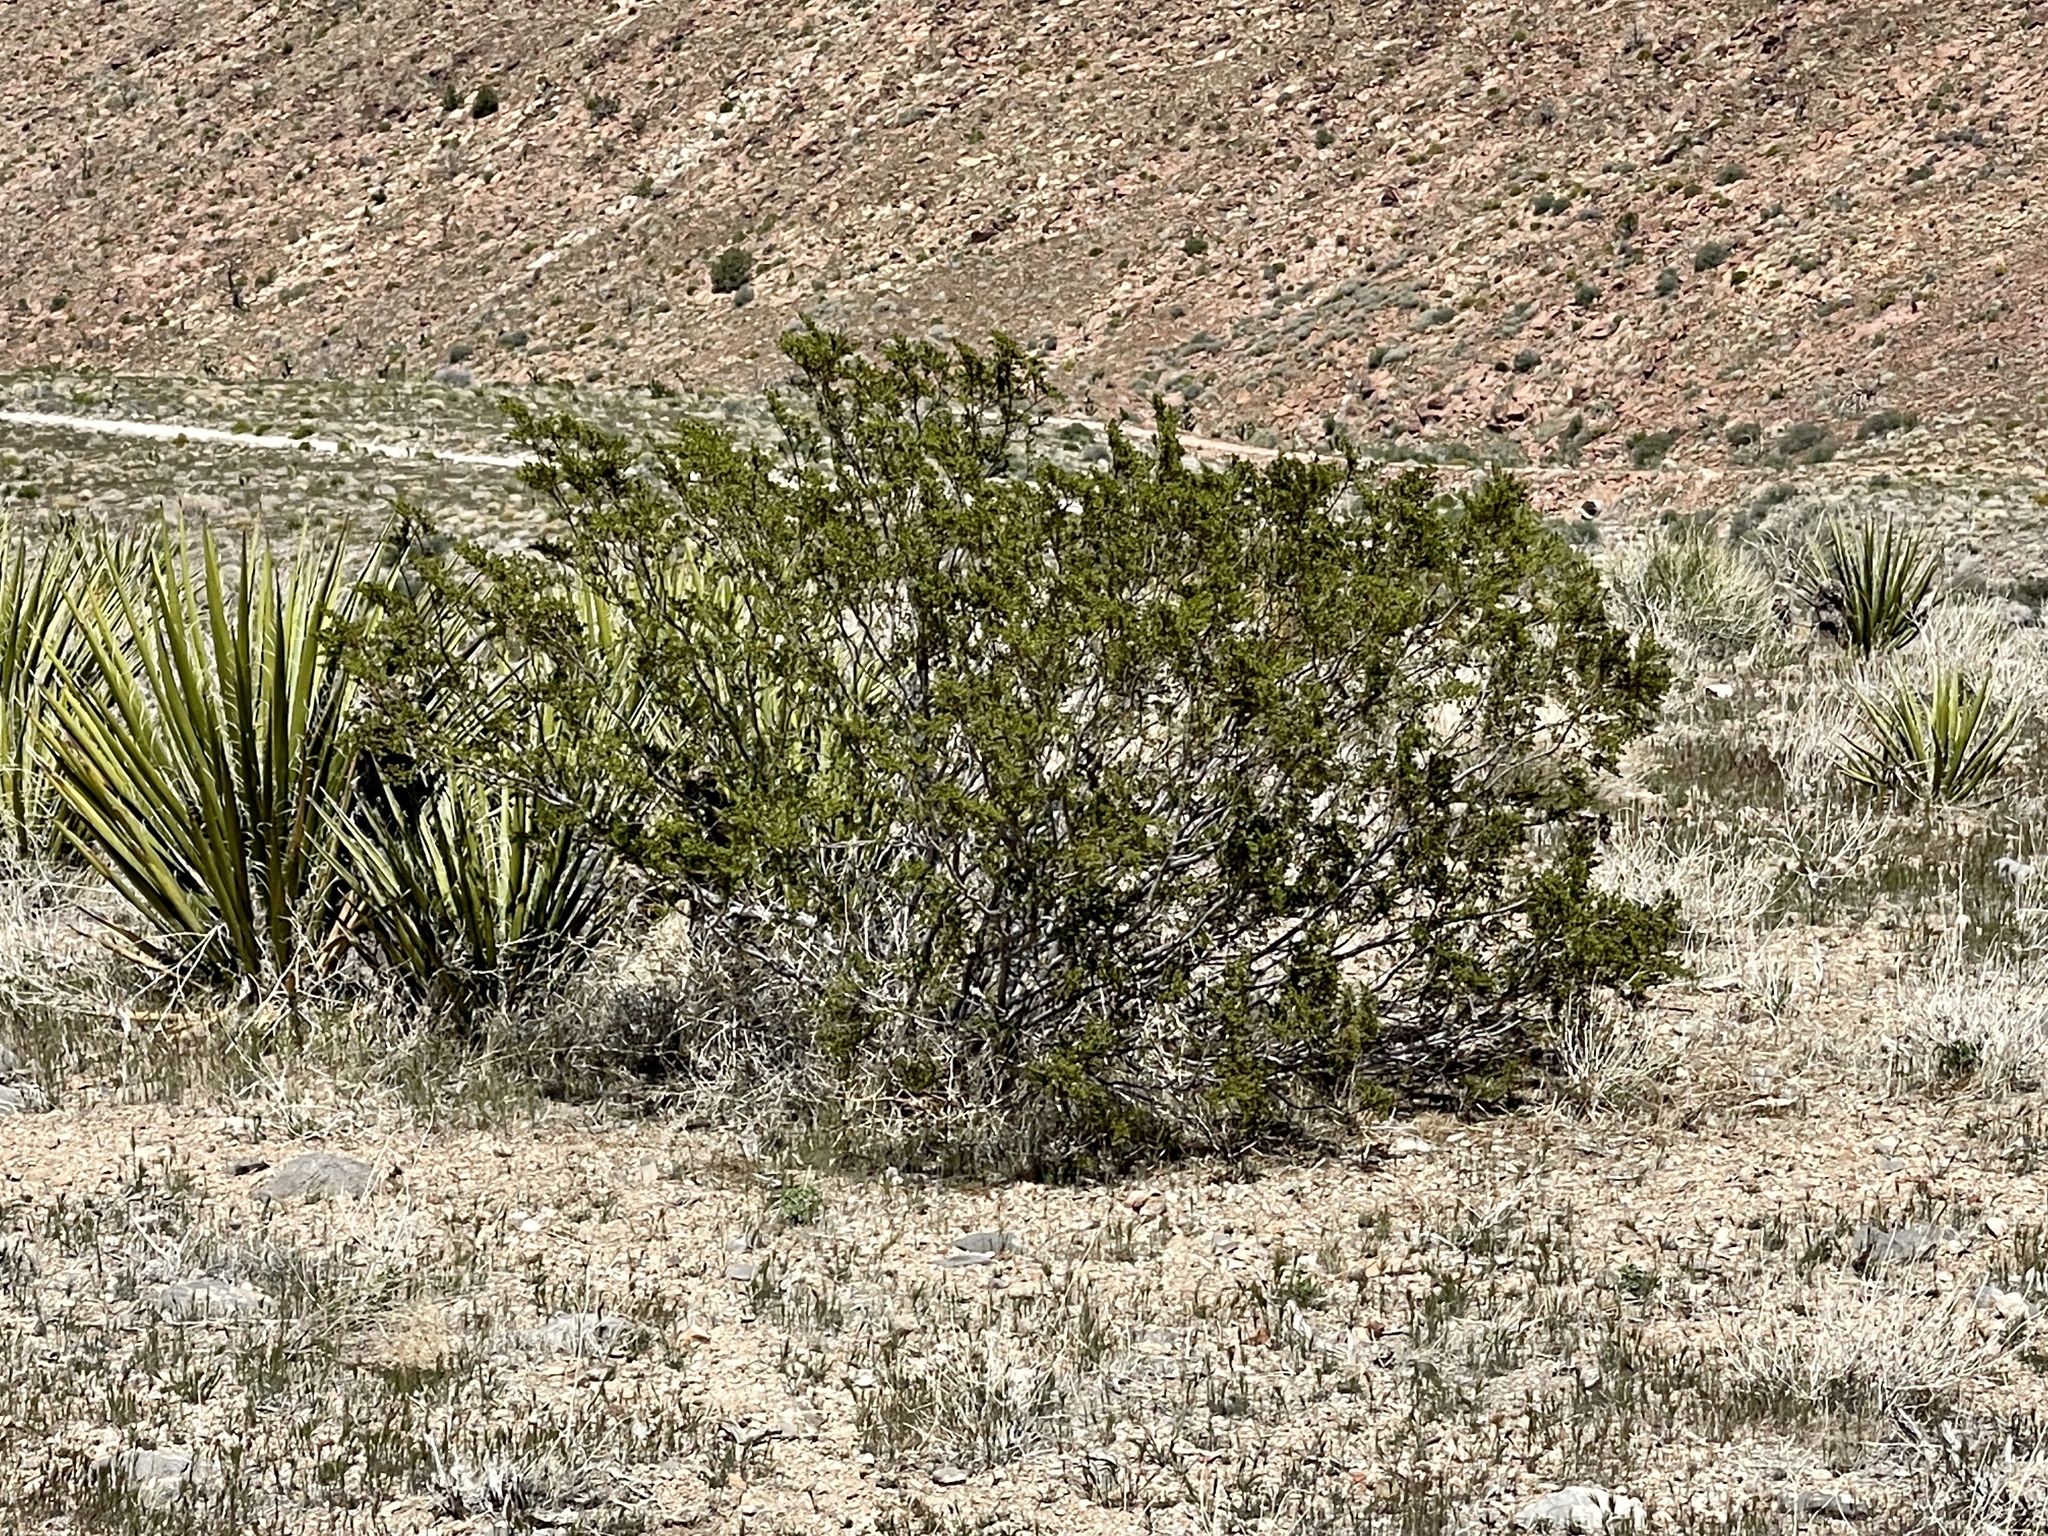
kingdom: Plantae
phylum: Tracheophyta
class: Magnoliopsida
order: Zygophyllales
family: Zygophyllaceae
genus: Larrea
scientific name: Larrea tridentata
